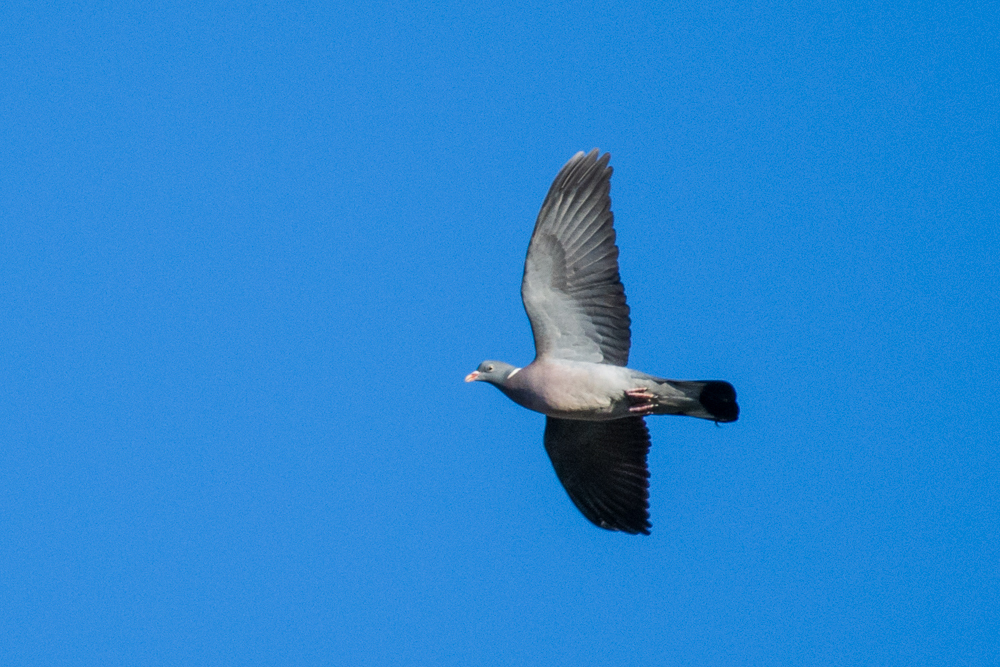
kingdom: Animalia
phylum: Chordata
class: Aves
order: Columbiformes
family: Columbidae
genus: Columba
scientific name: Columba palumbus
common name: Common wood pigeon
